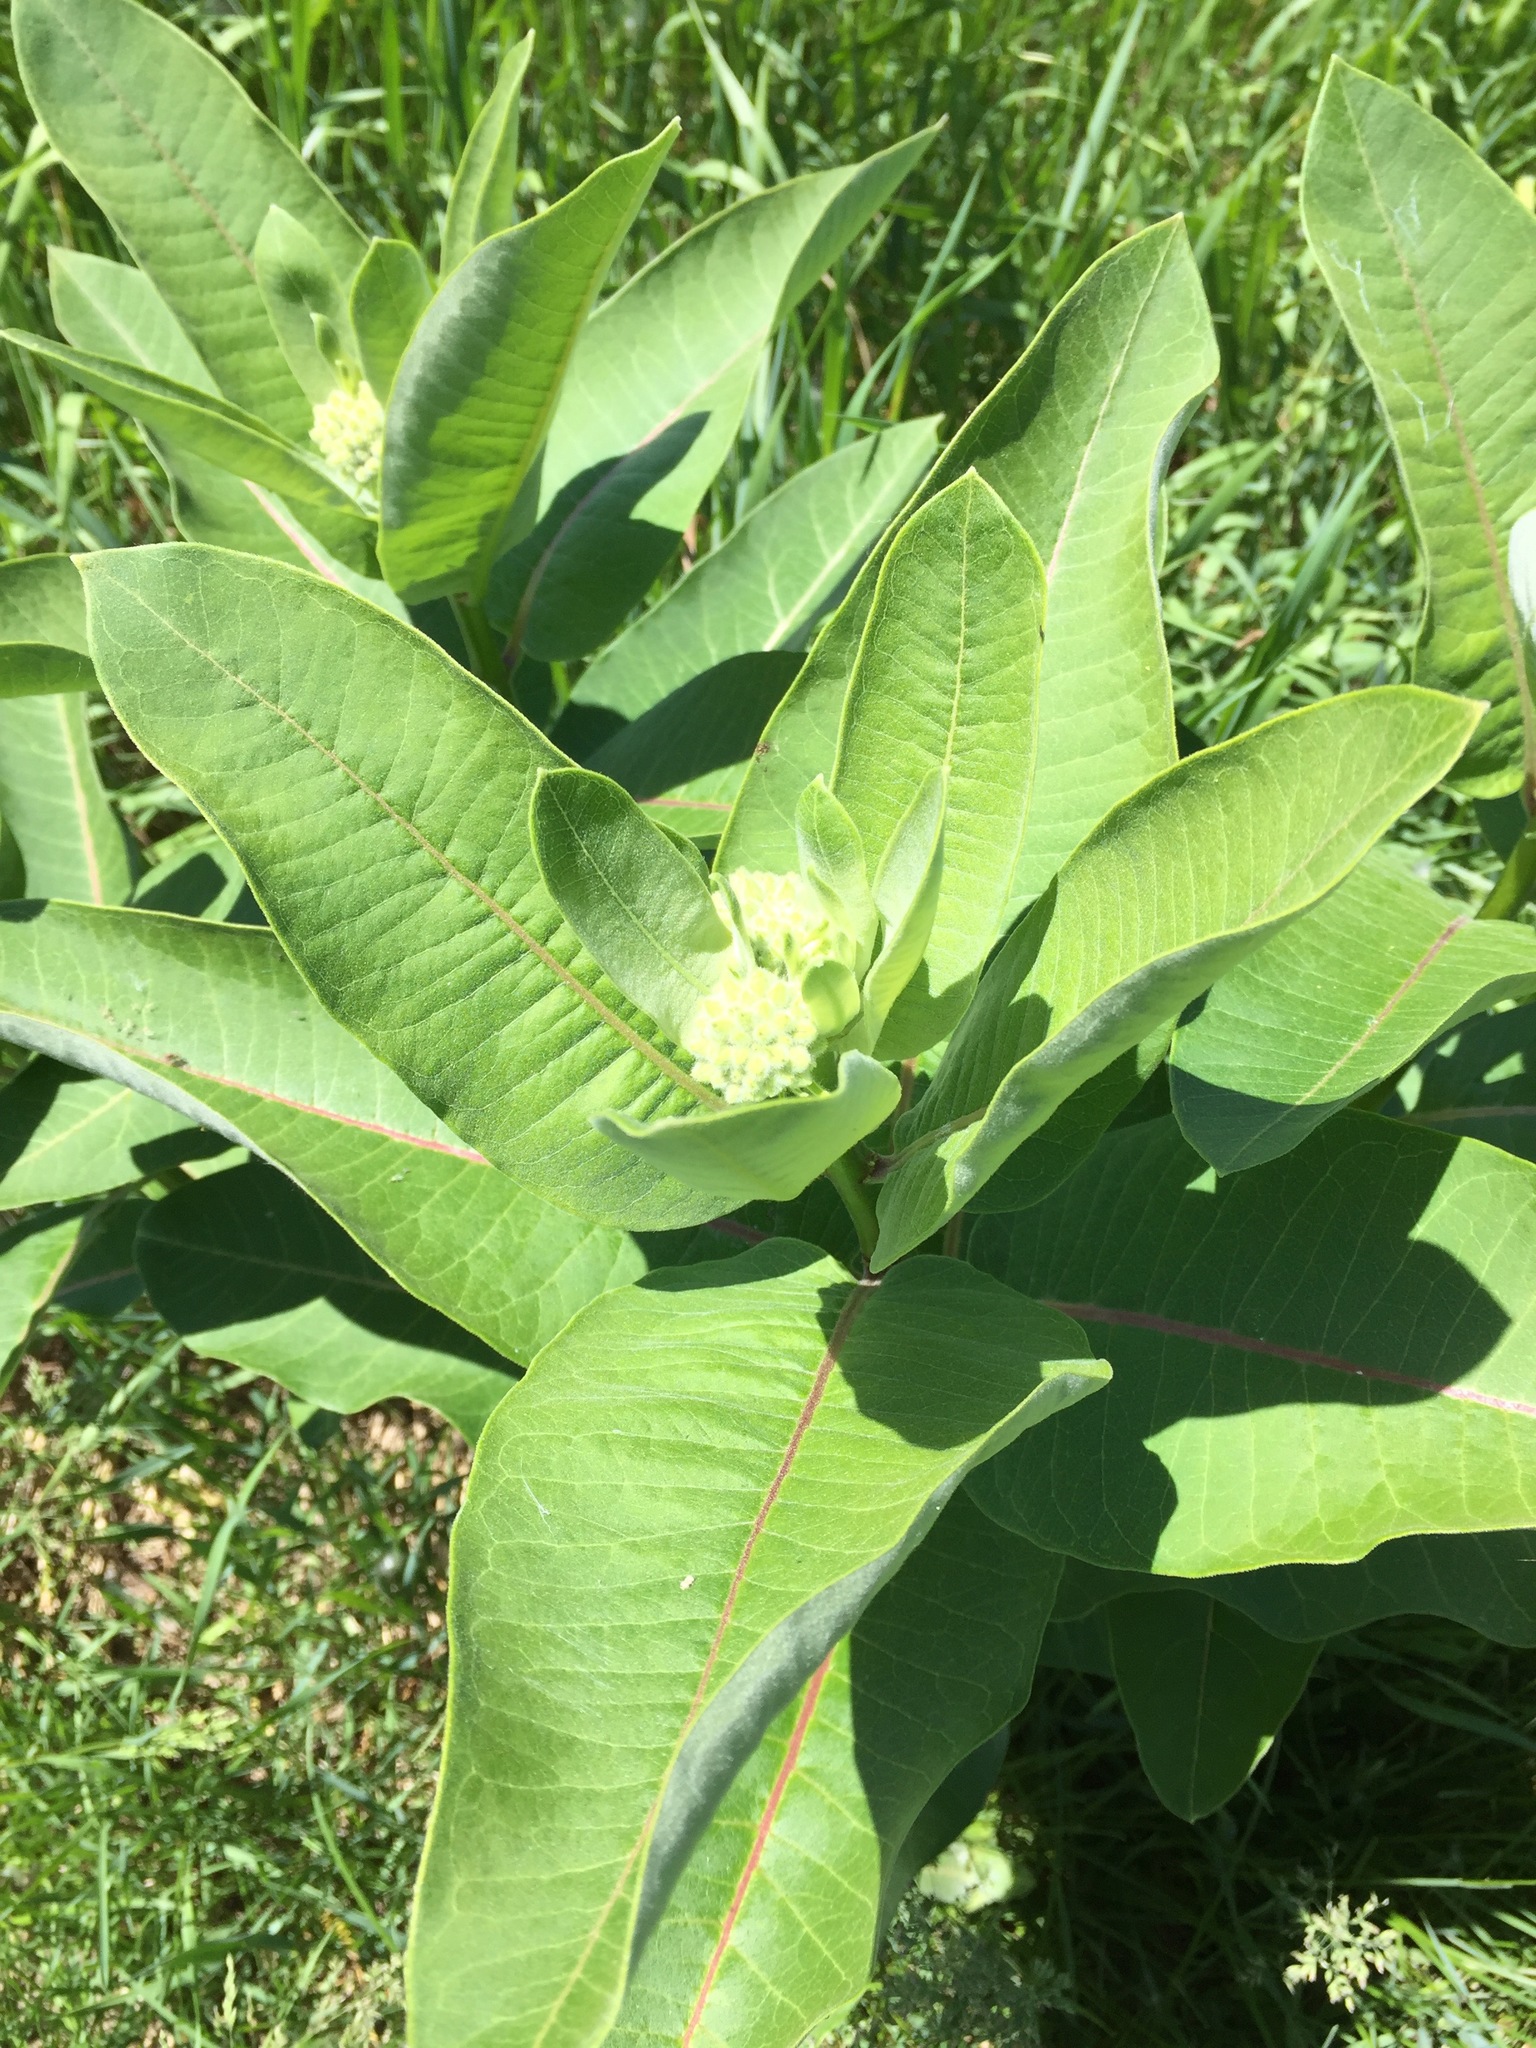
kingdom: Plantae
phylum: Tracheophyta
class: Magnoliopsida
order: Gentianales
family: Apocynaceae
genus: Asclepias
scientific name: Asclepias syriaca
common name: Common milkweed
